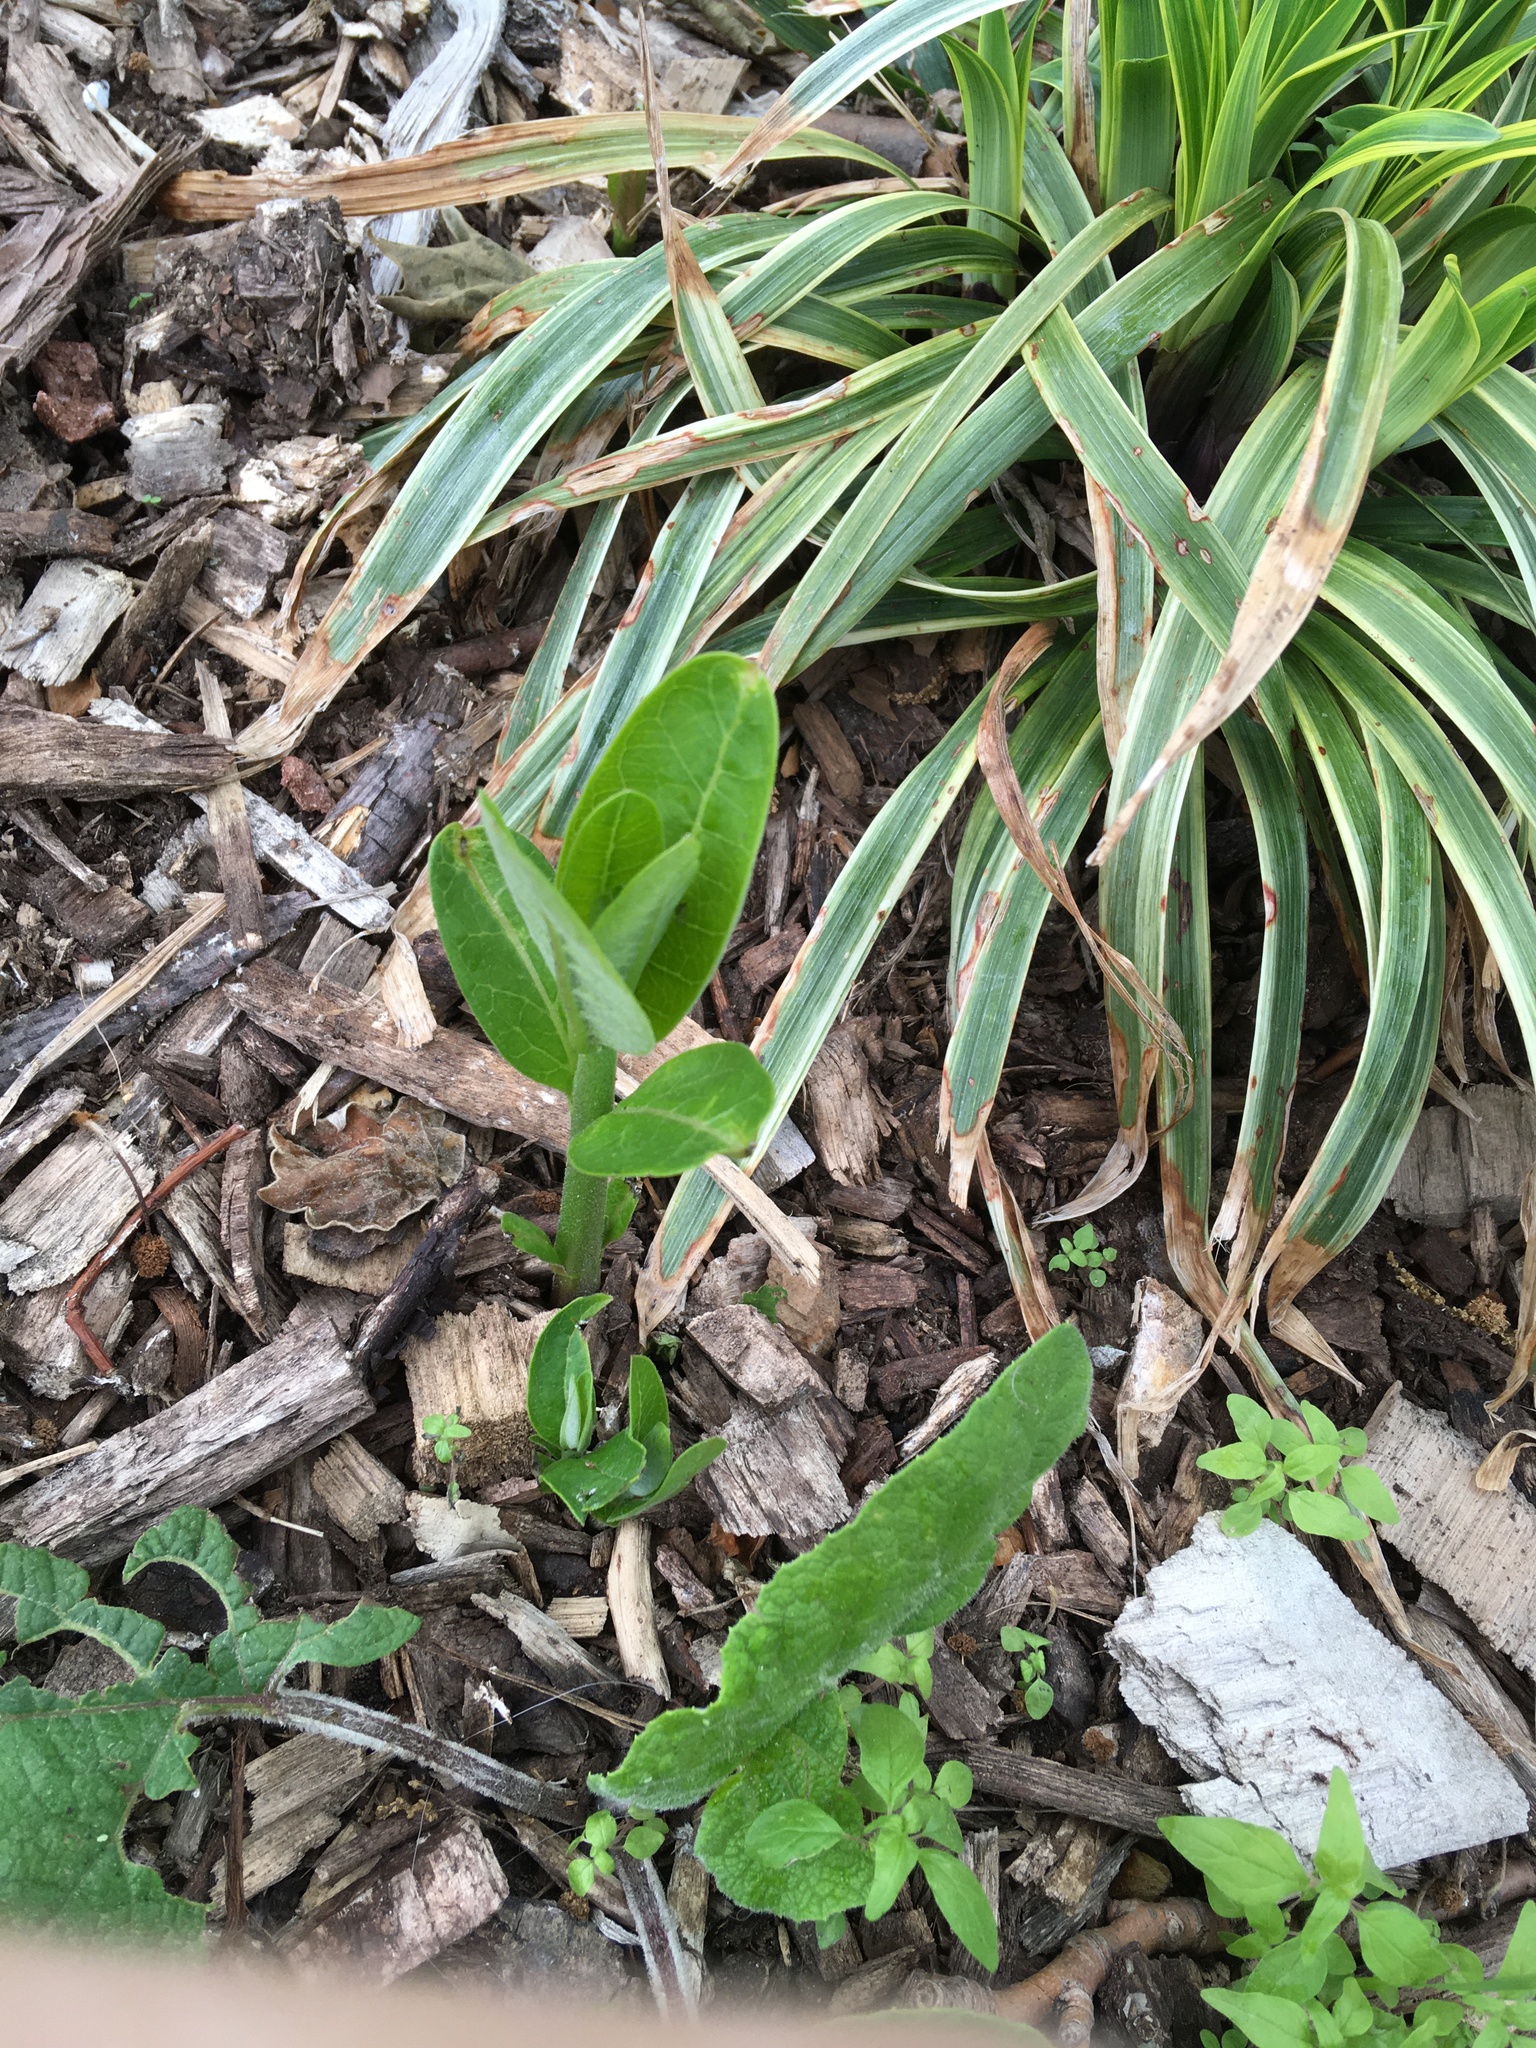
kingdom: Plantae
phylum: Tracheophyta
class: Magnoliopsida
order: Gentianales
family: Apocynaceae
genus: Asclepias
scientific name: Asclepias syriaca
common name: Common milkweed
